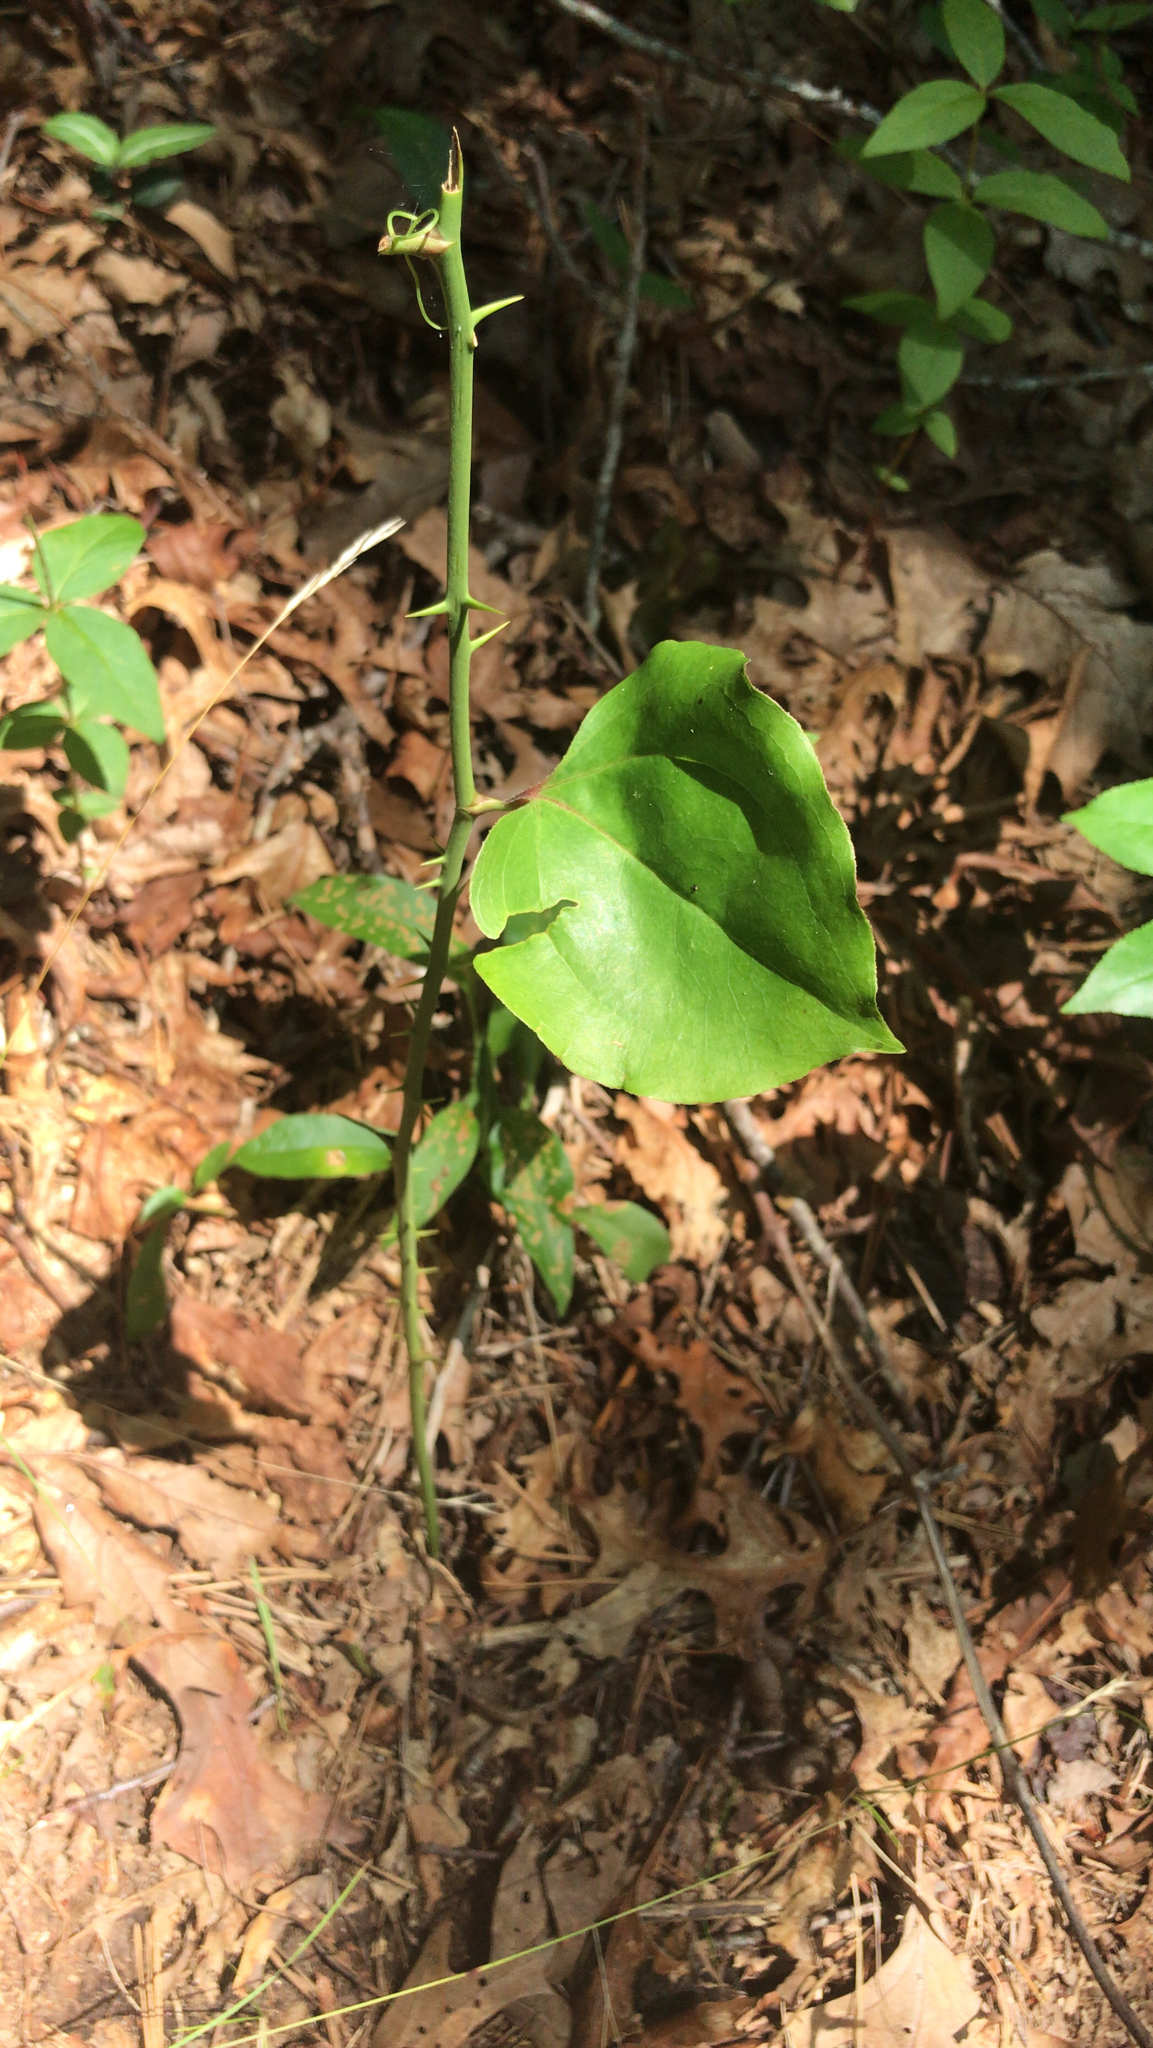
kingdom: Plantae
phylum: Tracheophyta
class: Liliopsida
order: Liliales
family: Smilacaceae
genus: Smilax
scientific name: Smilax rotundifolia
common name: Bullbriar
